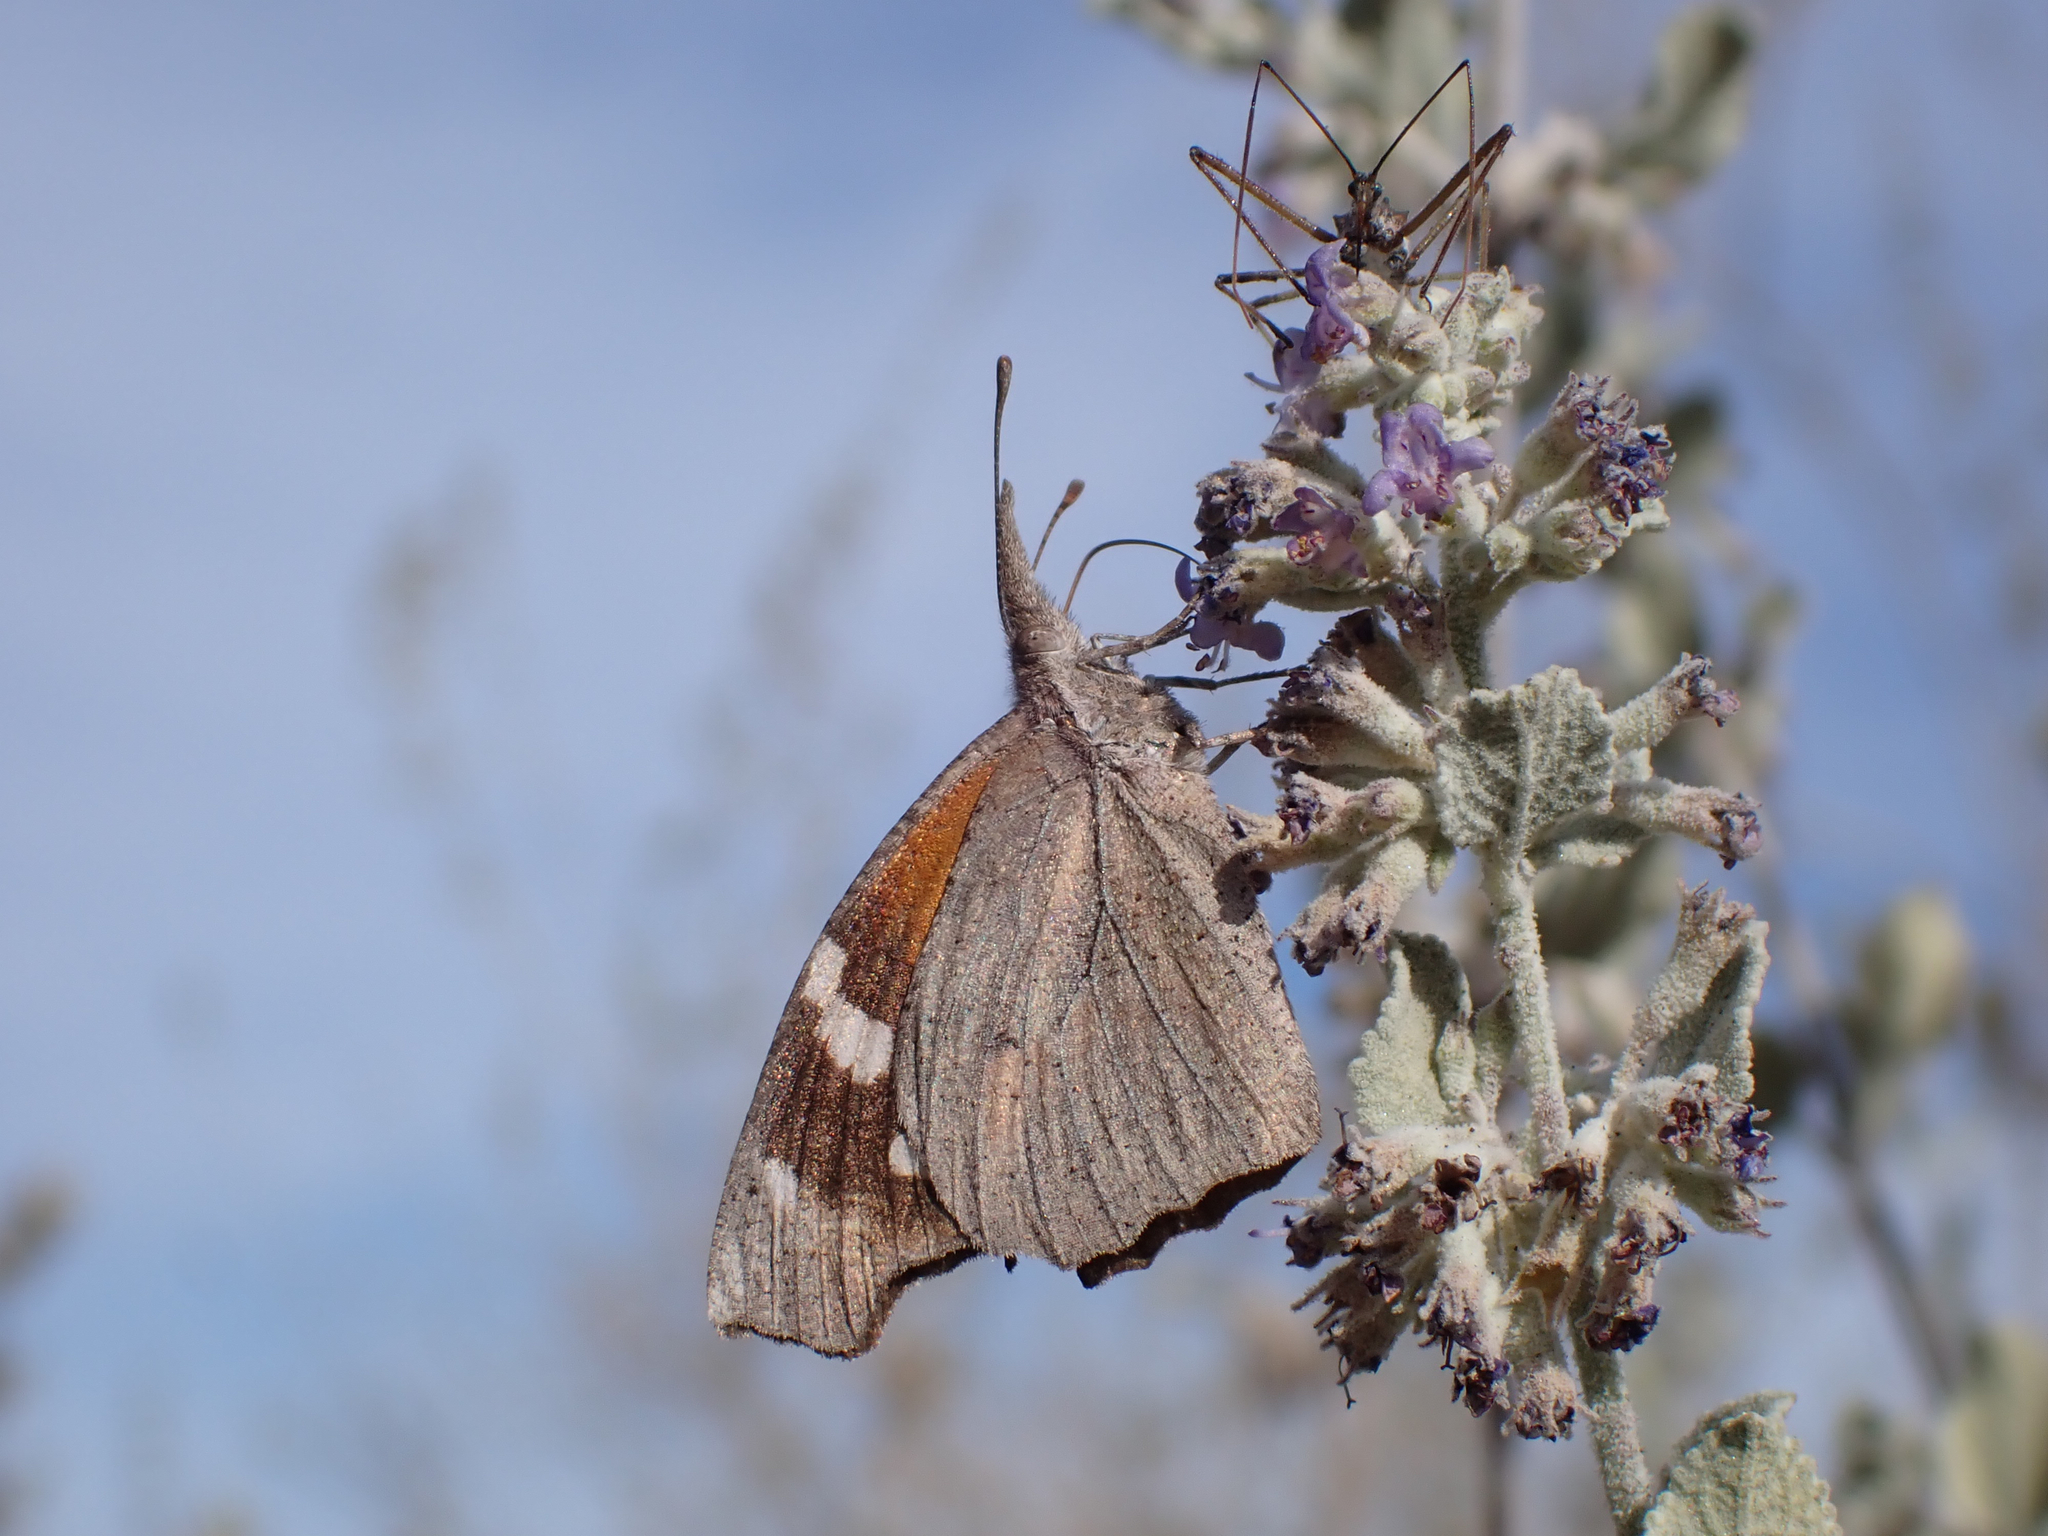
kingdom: Animalia
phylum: Arthropoda
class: Insecta
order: Lepidoptera
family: Nymphalidae
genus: Libytheana
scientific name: Libytheana carinenta
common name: American snout
